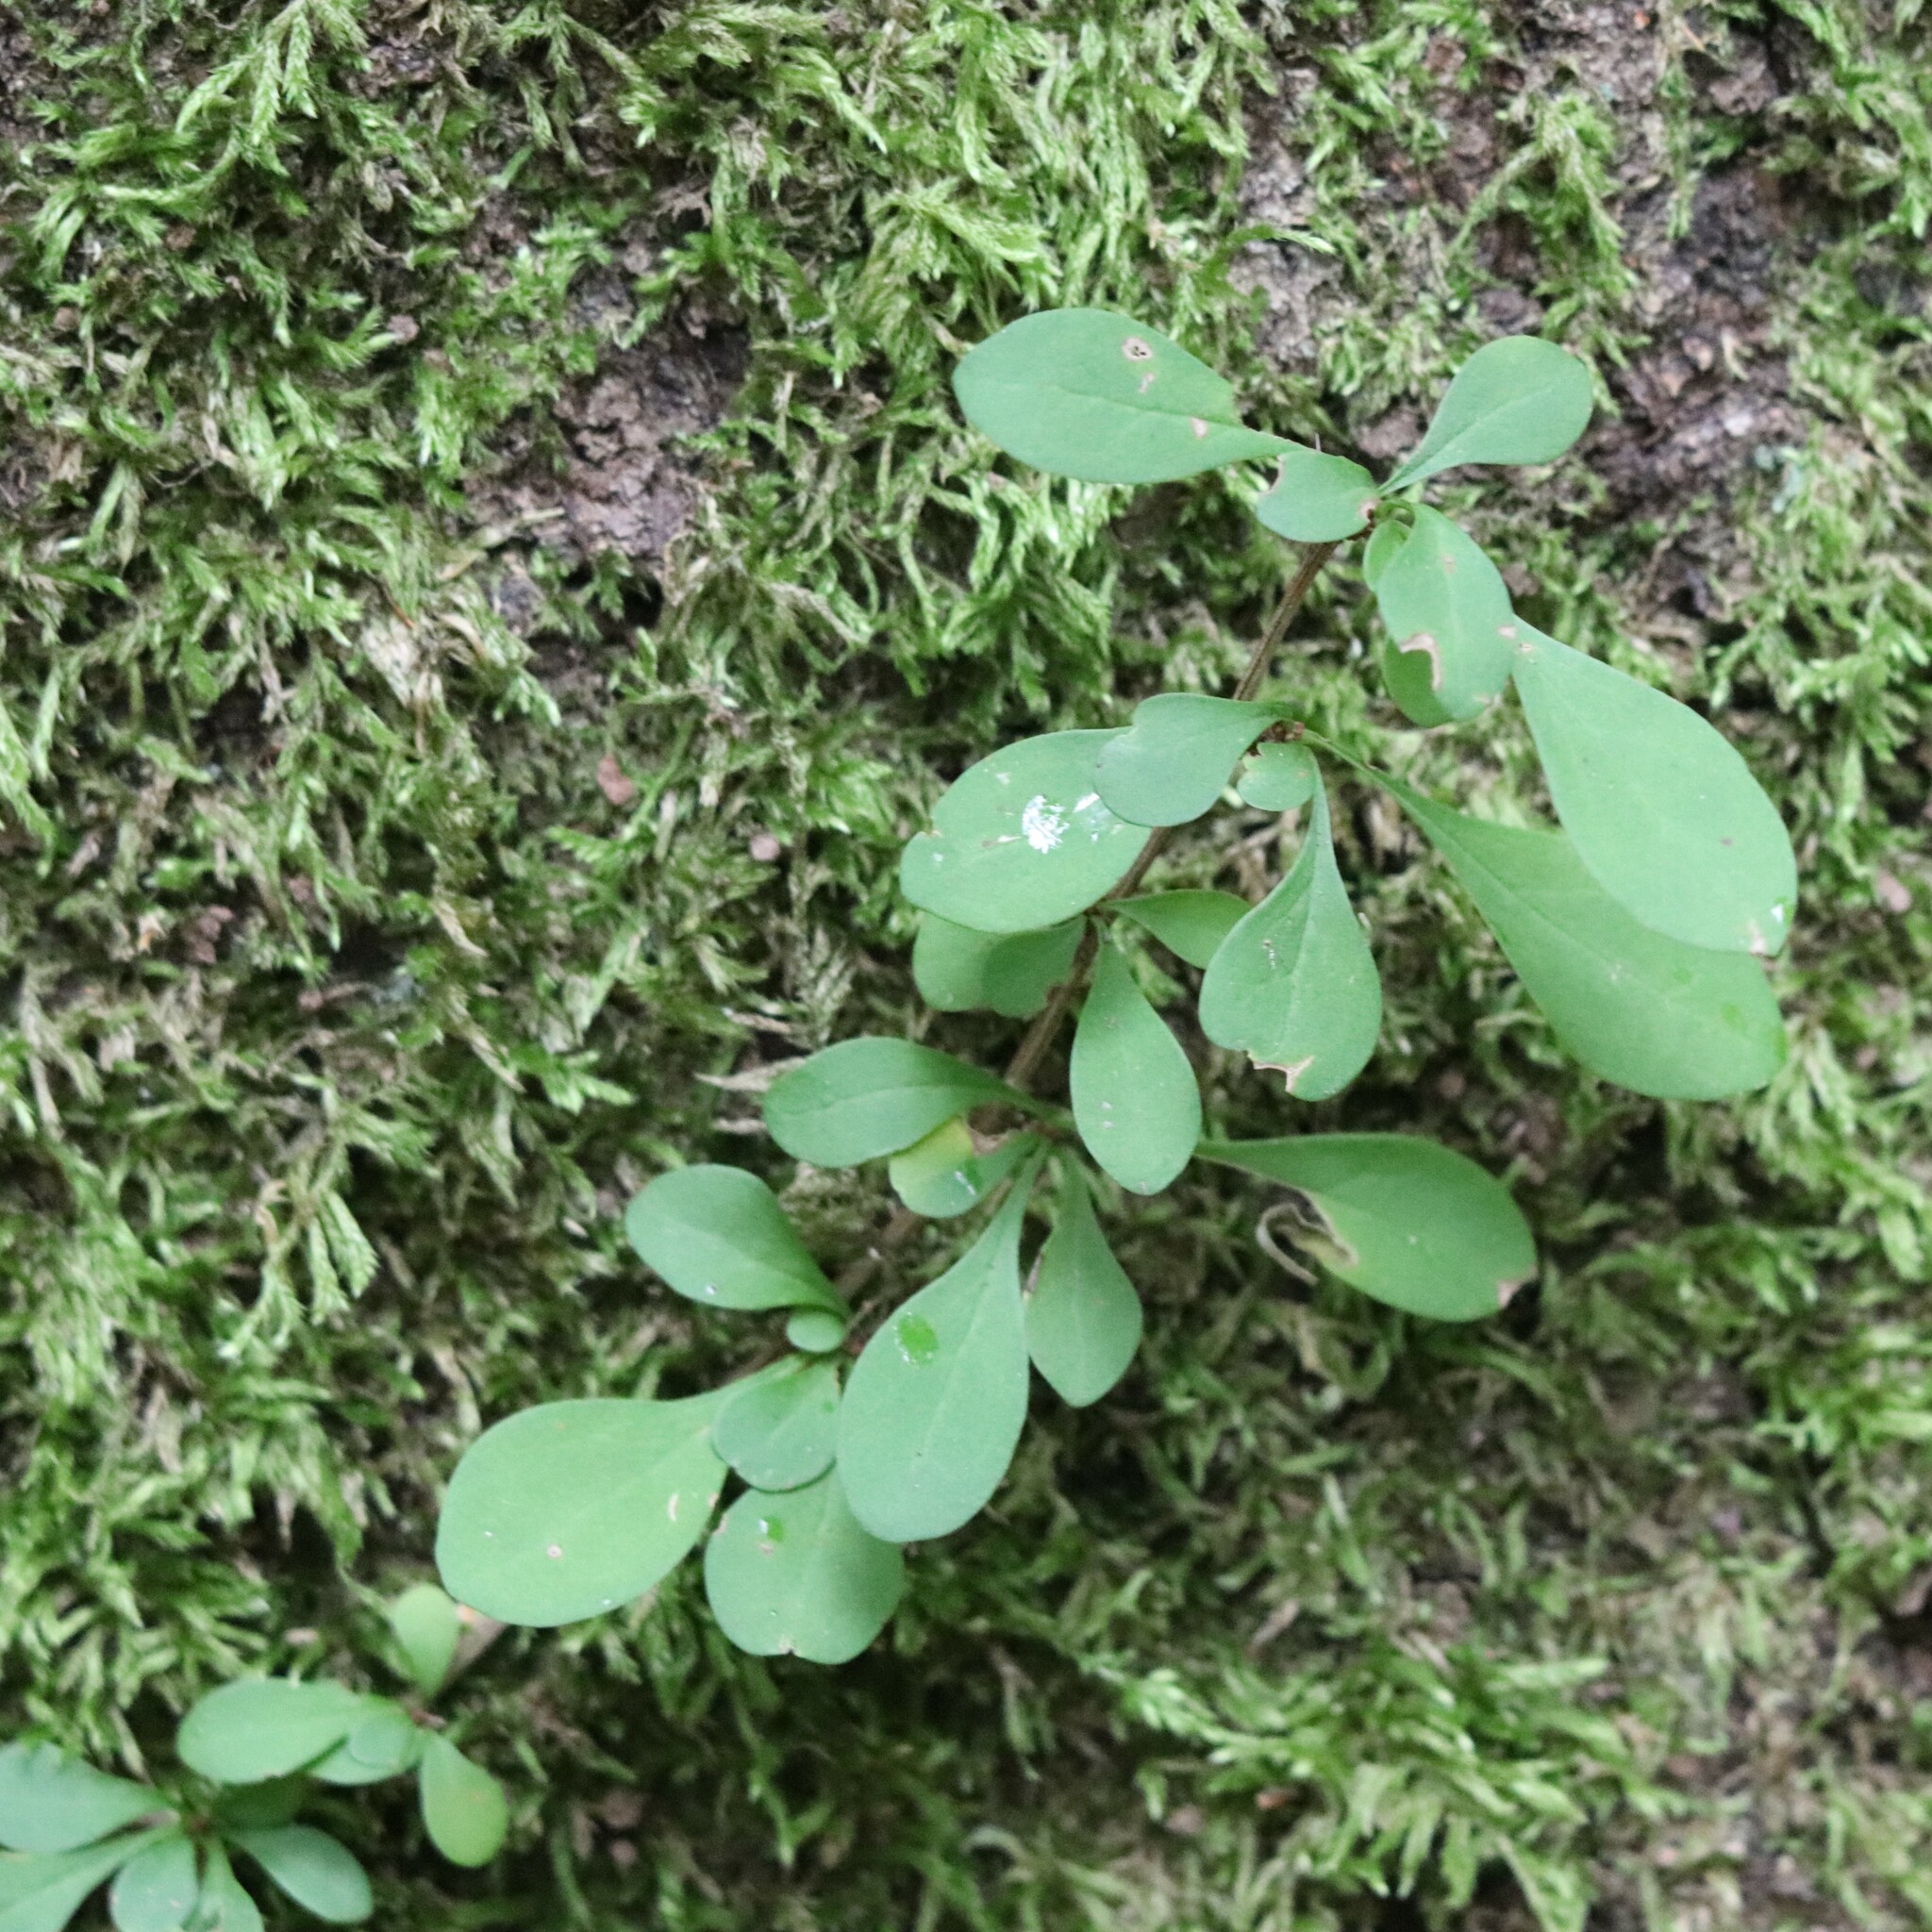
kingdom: Plantae
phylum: Tracheophyta
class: Magnoliopsida
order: Ranunculales
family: Berberidaceae
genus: Berberis
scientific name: Berberis thunbergii
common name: Japanese barberry
